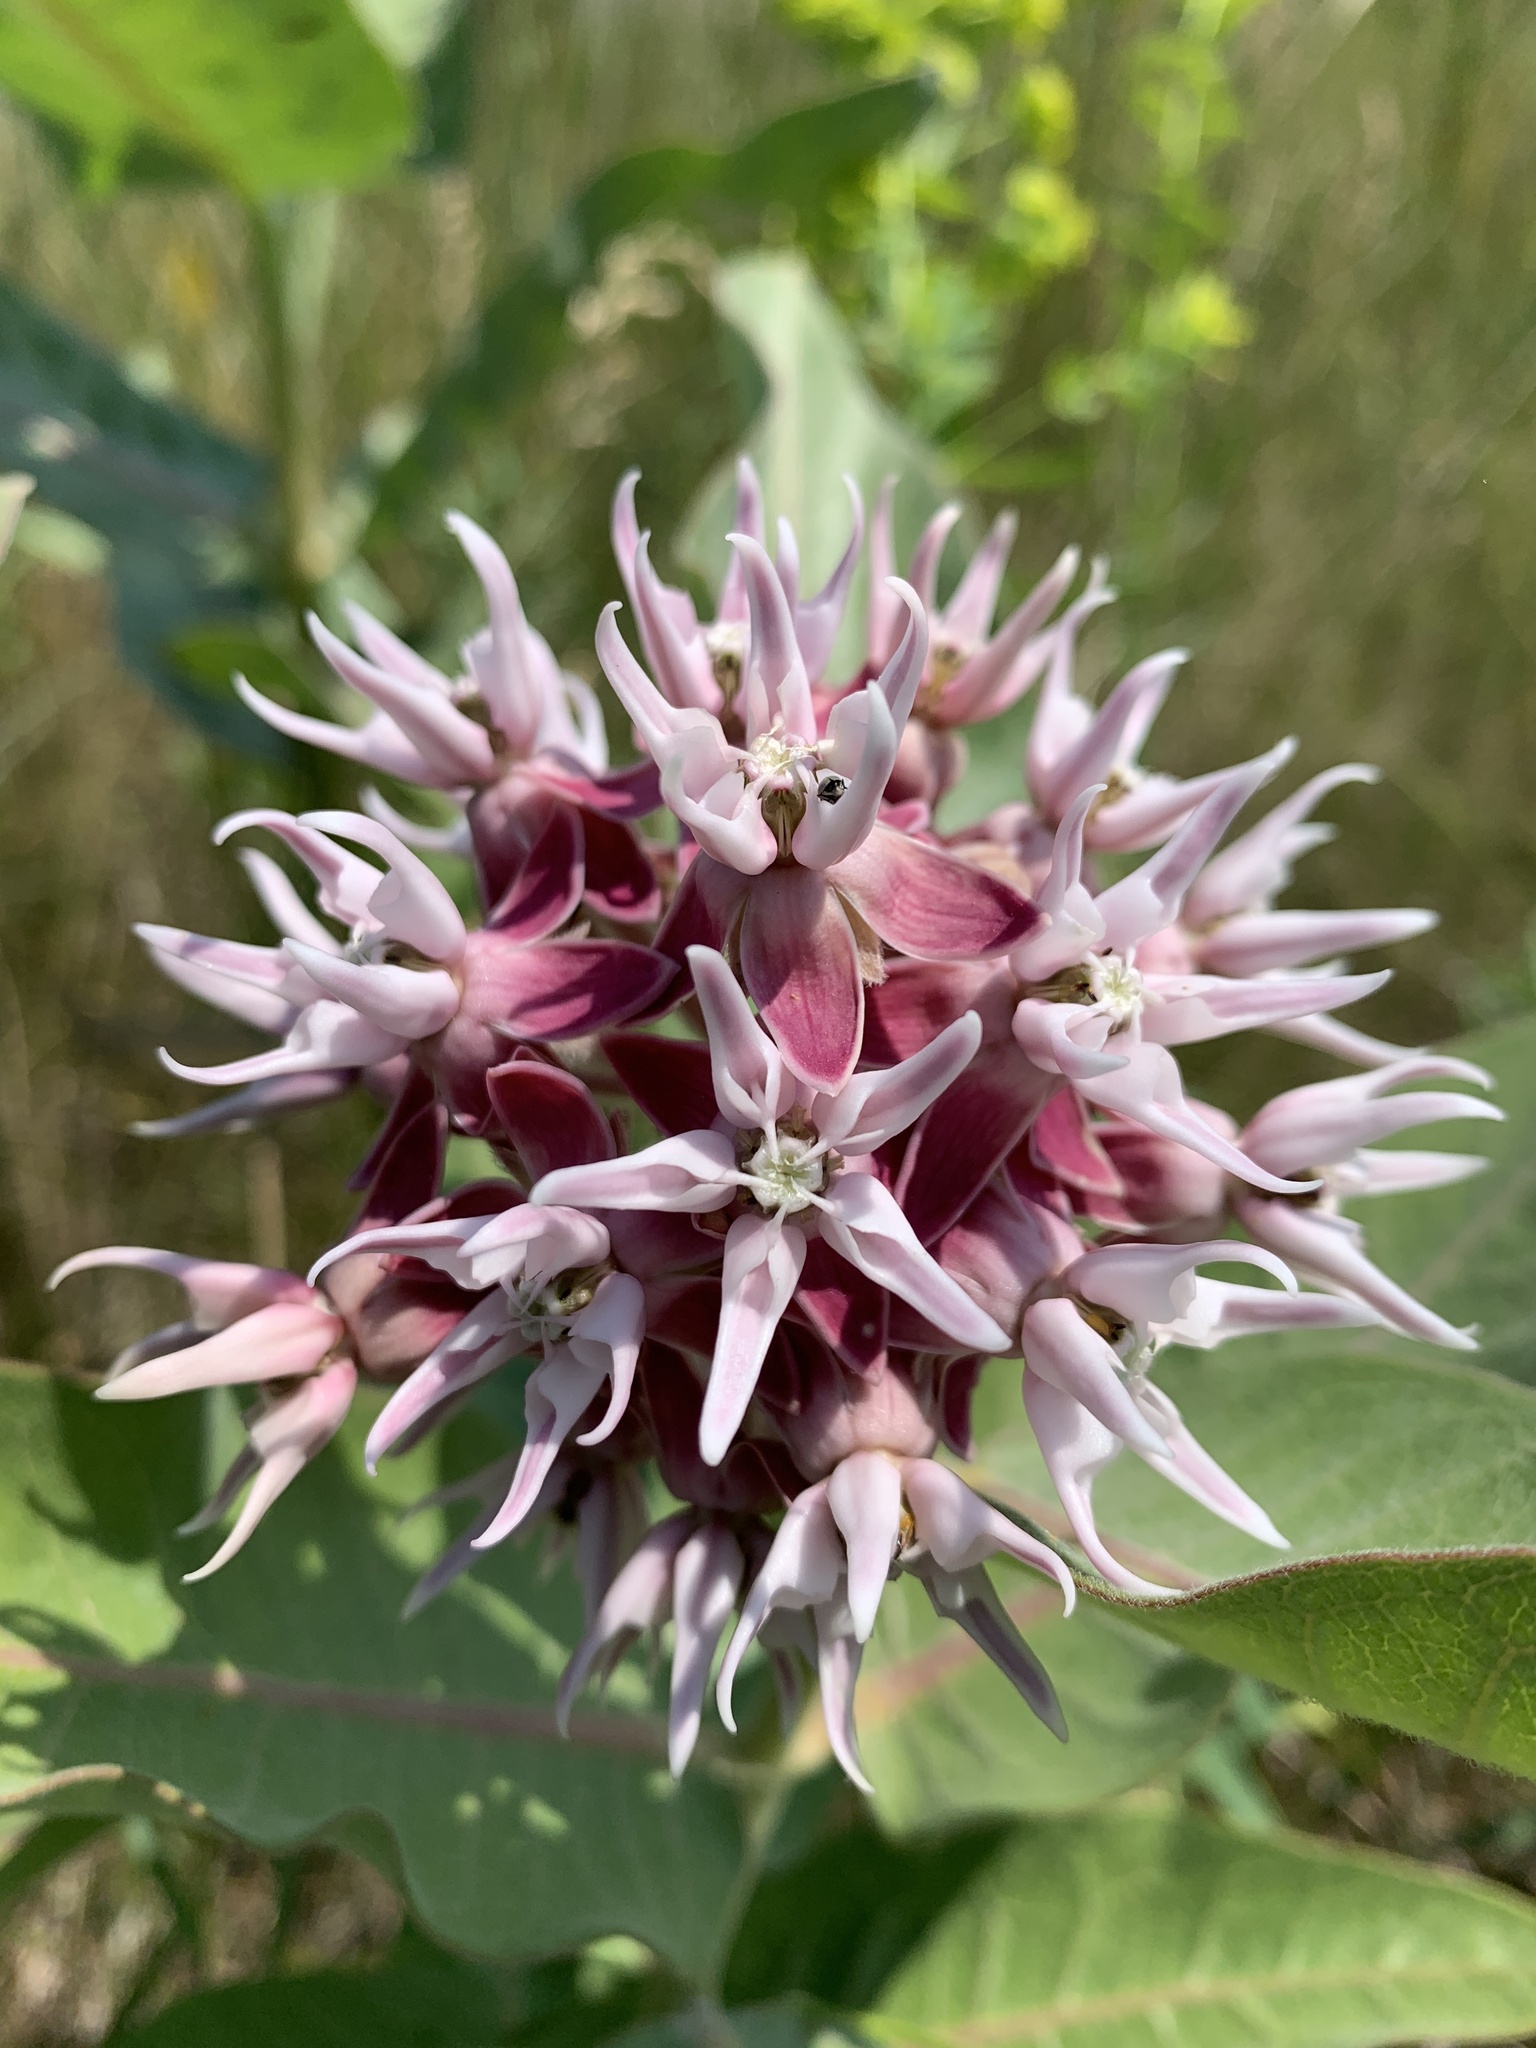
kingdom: Plantae
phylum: Tracheophyta
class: Magnoliopsida
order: Gentianales
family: Apocynaceae
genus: Asclepias
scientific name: Asclepias speciosa
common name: Showy milkweed
